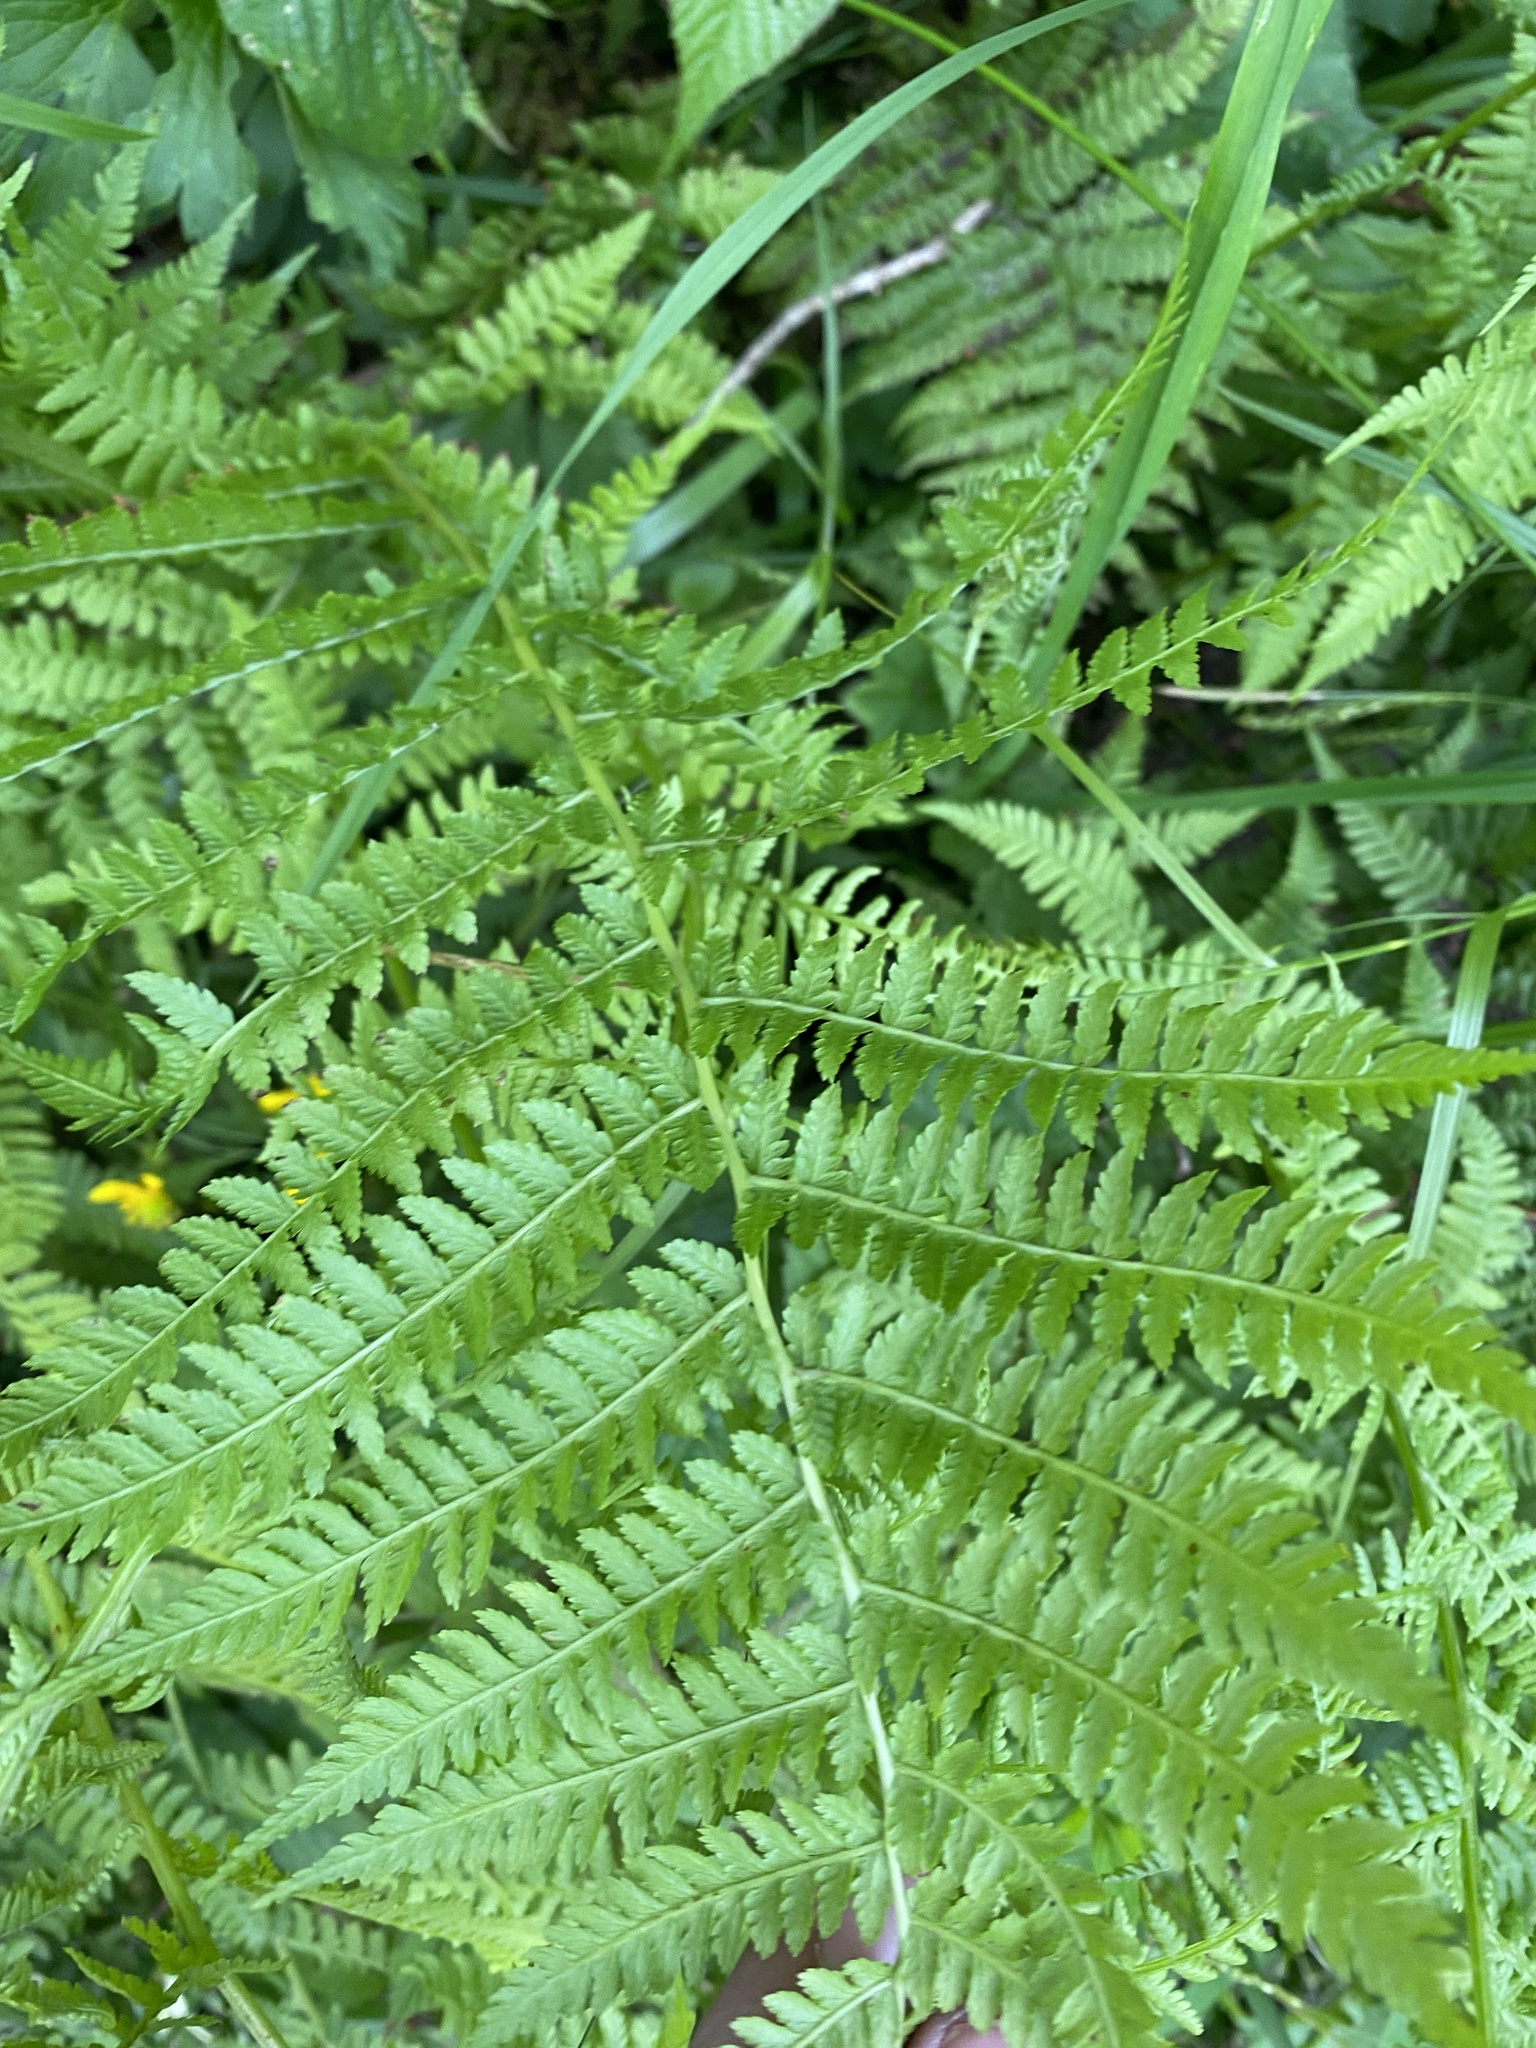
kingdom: Plantae
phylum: Tracheophyta
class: Polypodiopsida
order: Polypodiales
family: Athyriaceae
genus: Athyrium
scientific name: Athyrium filix-femina
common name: Lady fern
